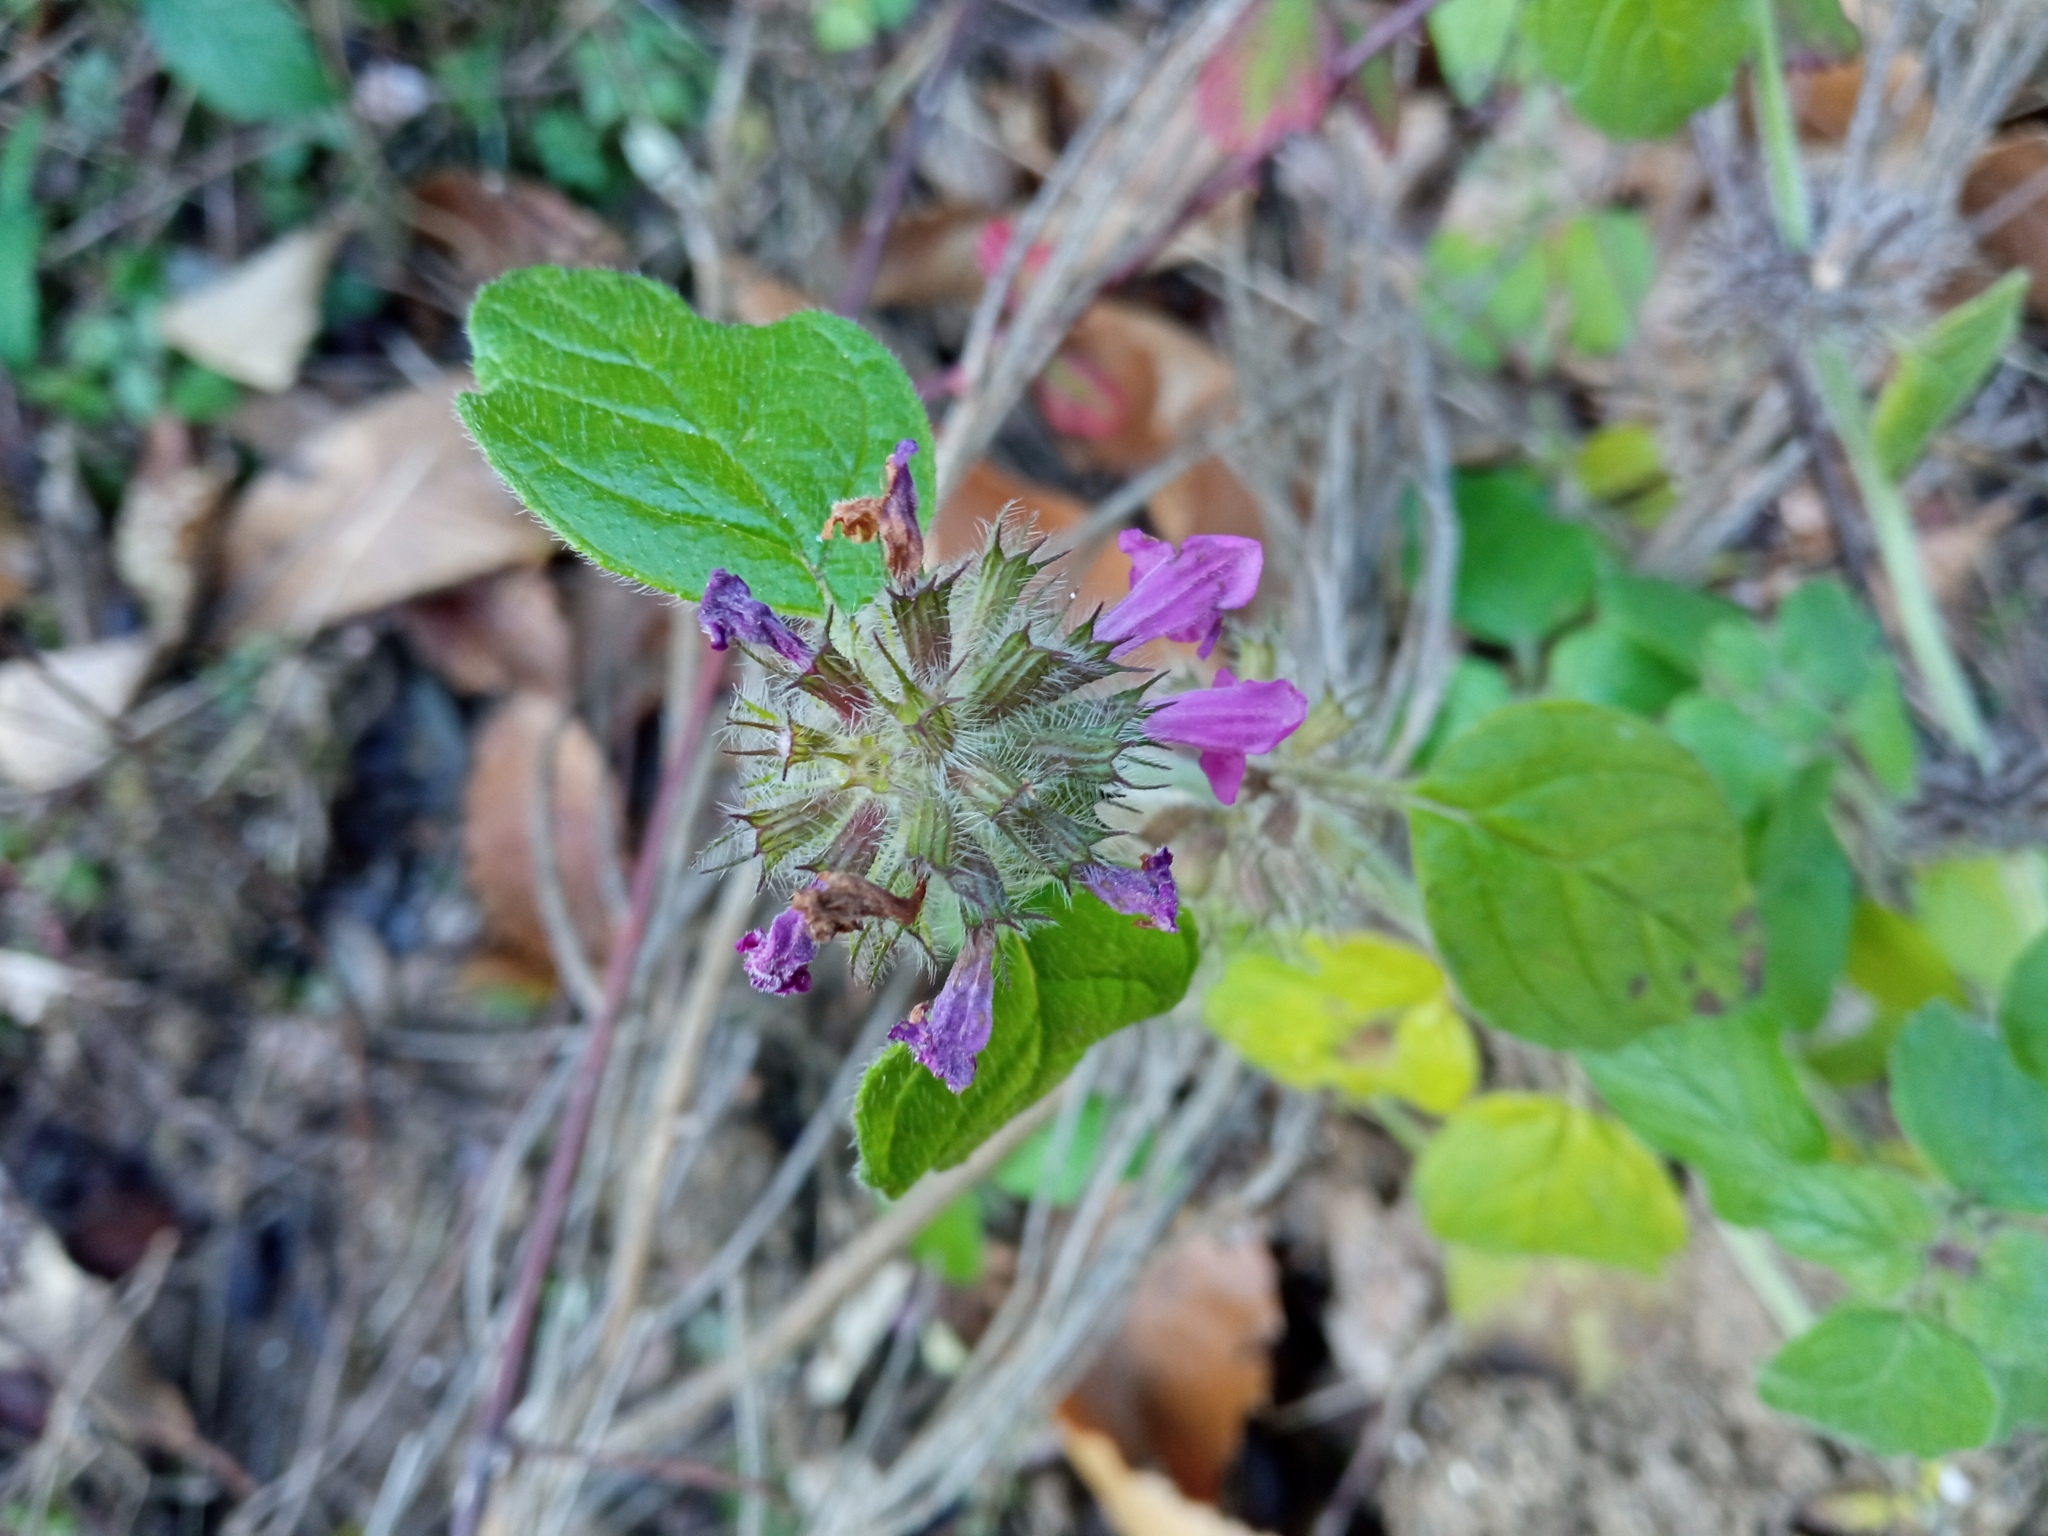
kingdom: Plantae
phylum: Tracheophyta
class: Magnoliopsida
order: Lamiales
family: Lamiaceae
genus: Clinopodium
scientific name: Clinopodium vulgare
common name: Wild basil
